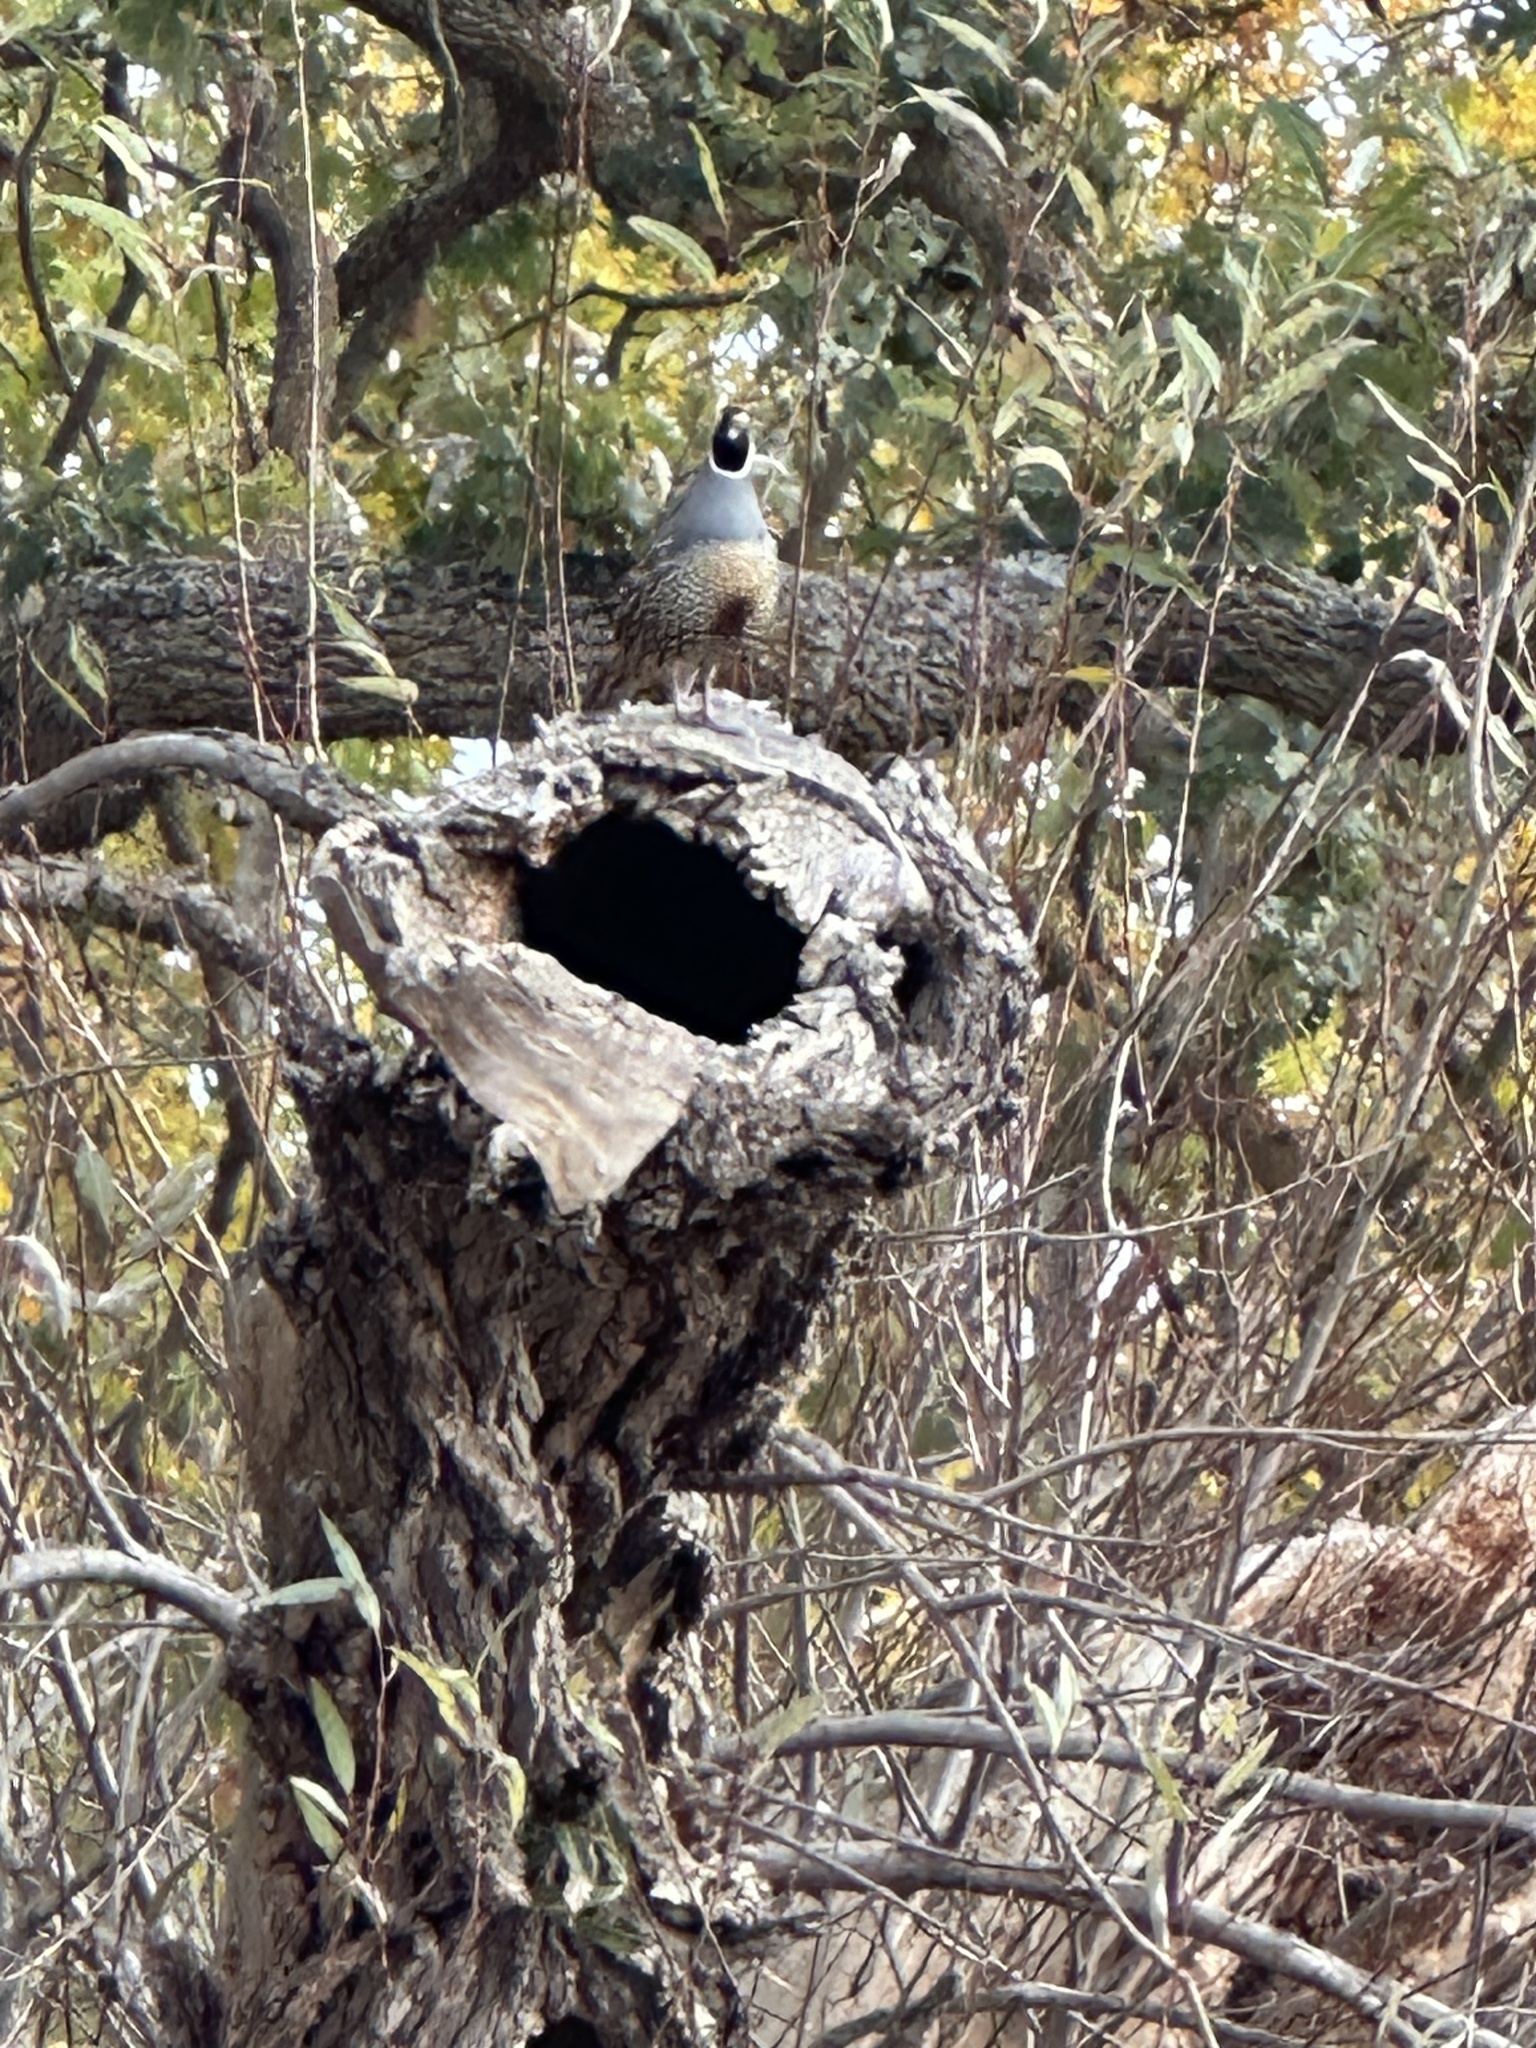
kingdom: Animalia
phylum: Chordata
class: Aves
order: Galliformes
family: Odontophoridae
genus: Callipepla
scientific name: Callipepla californica
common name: California quail
